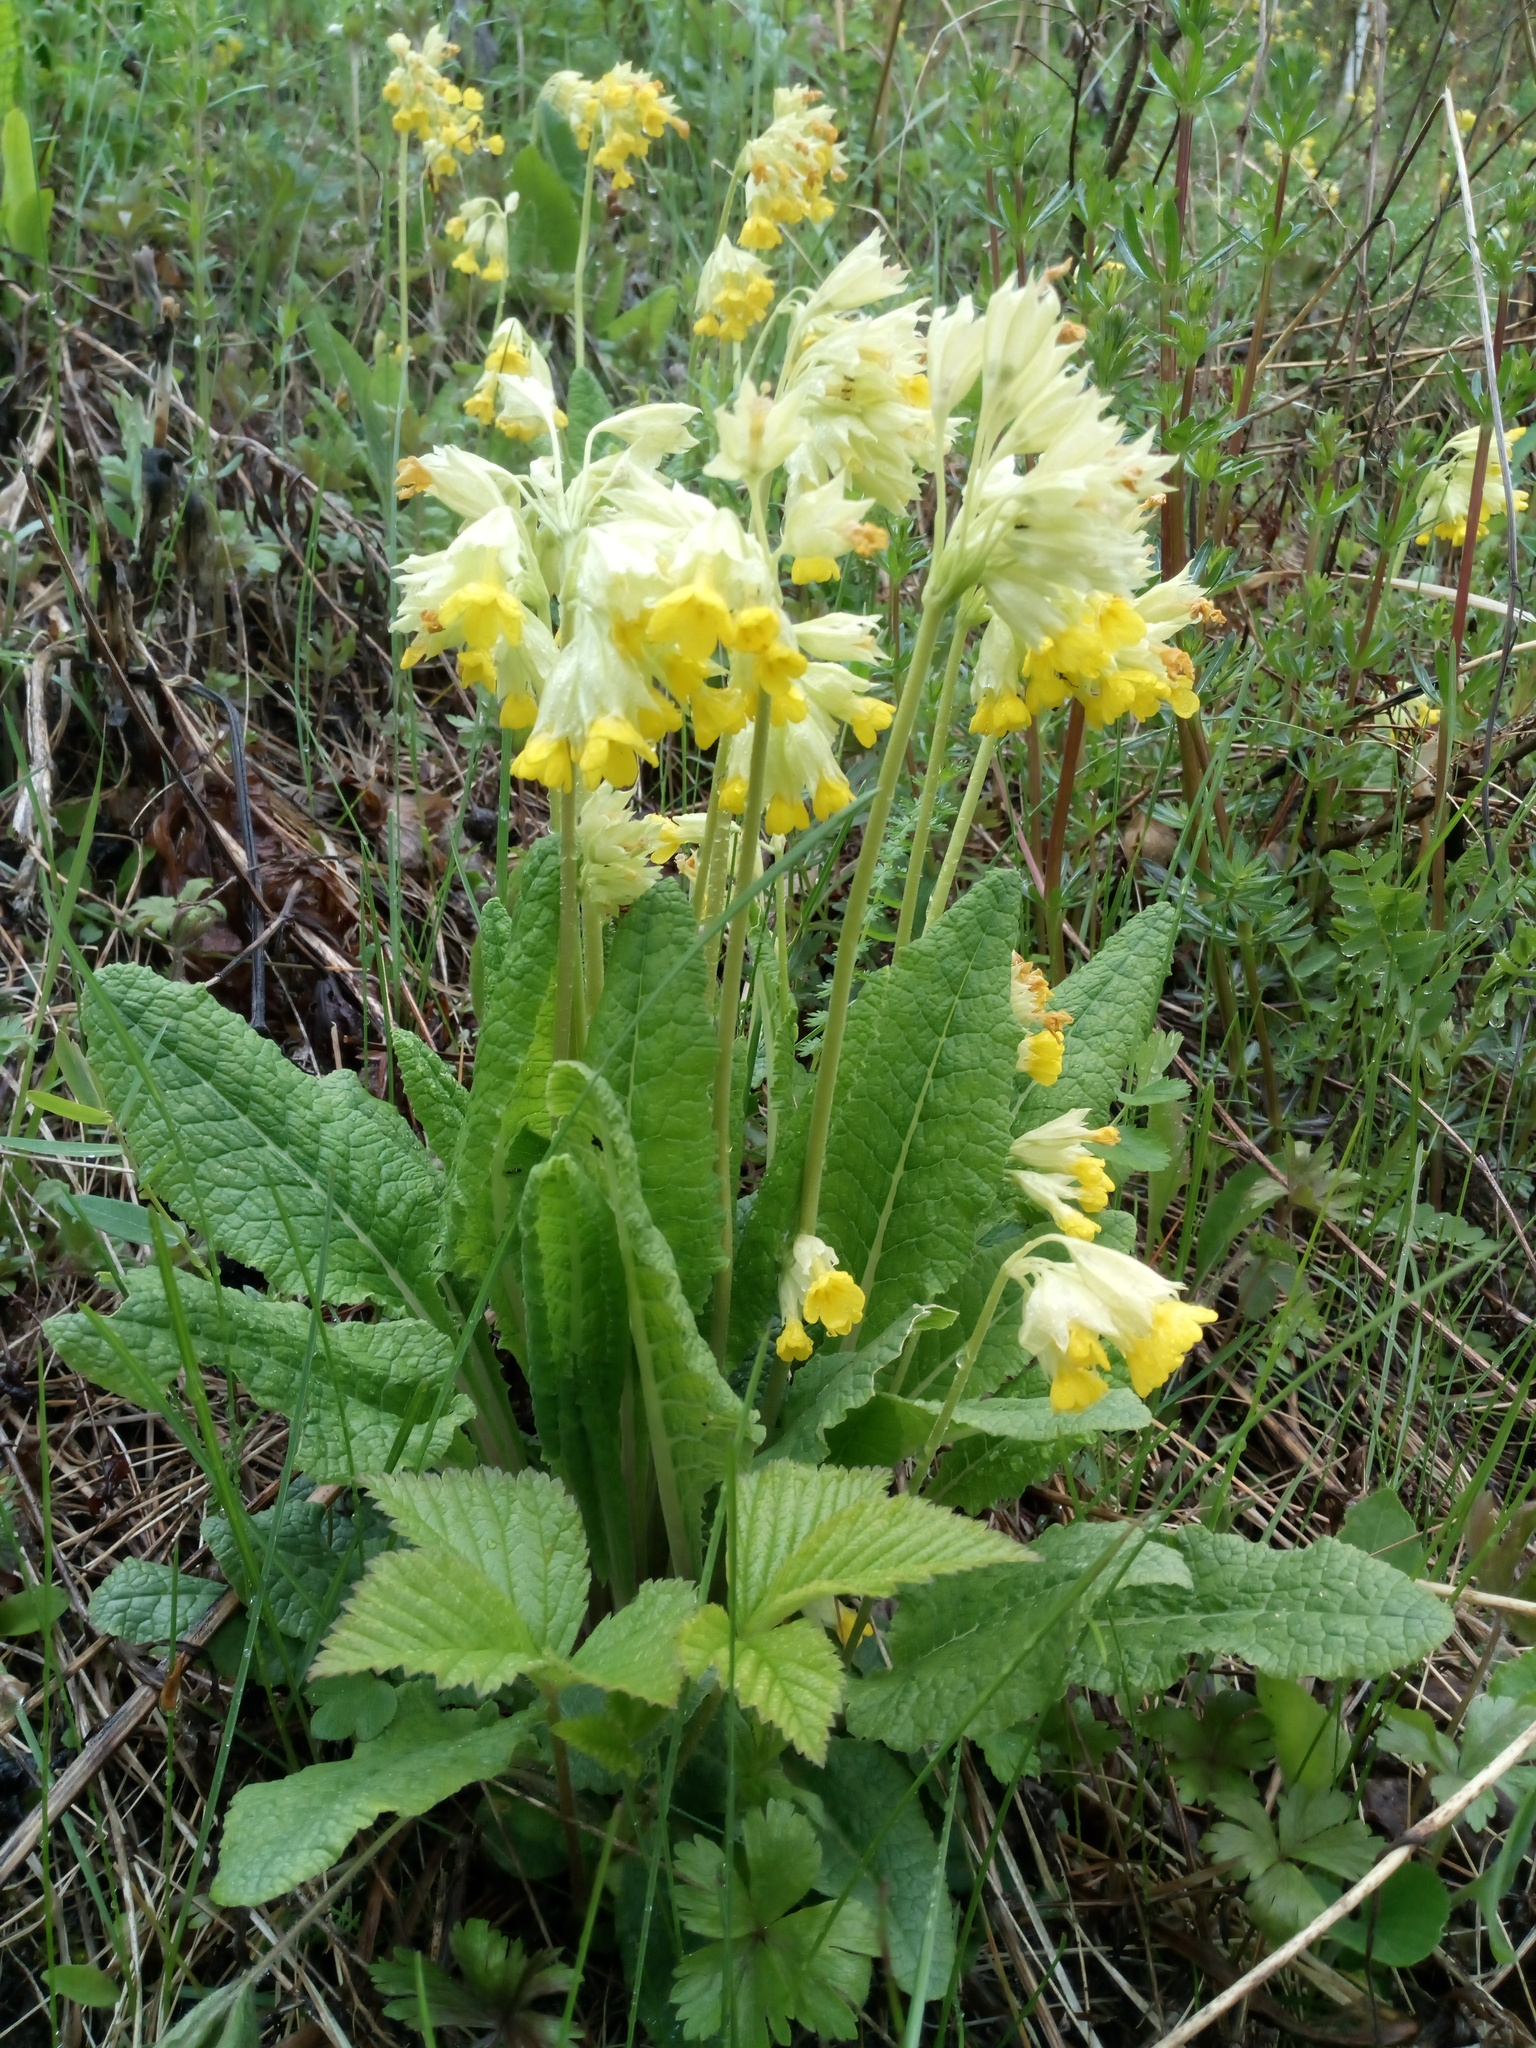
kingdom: Plantae
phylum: Tracheophyta
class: Magnoliopsida
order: Ericales
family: Primulaceae
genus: Primula
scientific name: Primula veris
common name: Cowslip
